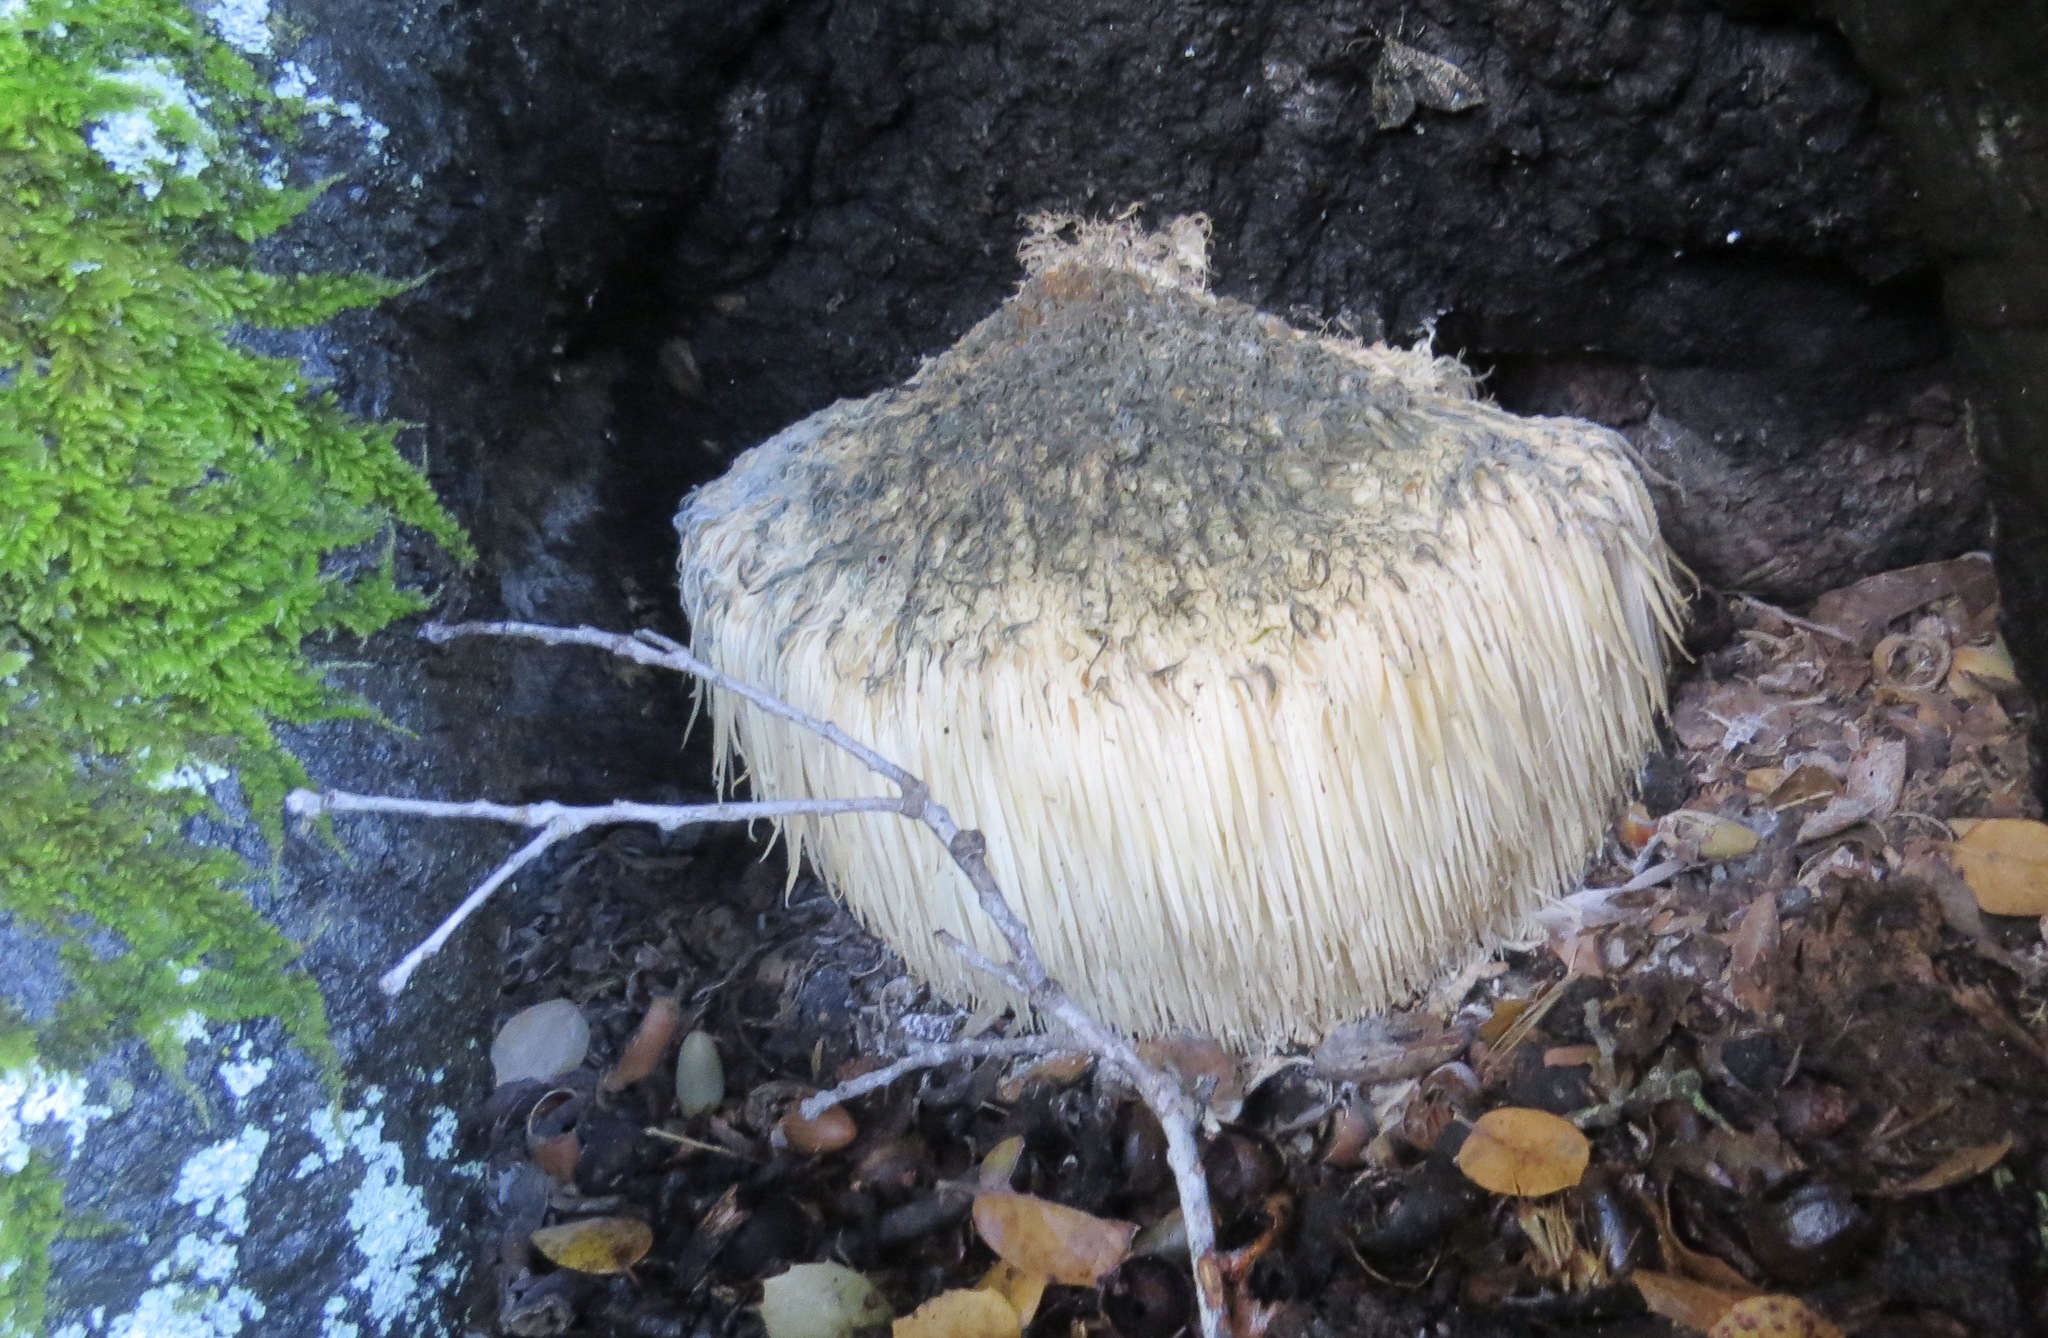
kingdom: Fungi
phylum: Basidiomycota
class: Agaricomycetes
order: Russulales
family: Hericiaceae
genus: Hericium
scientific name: Hericium erinaceus
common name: Bearded tooth
